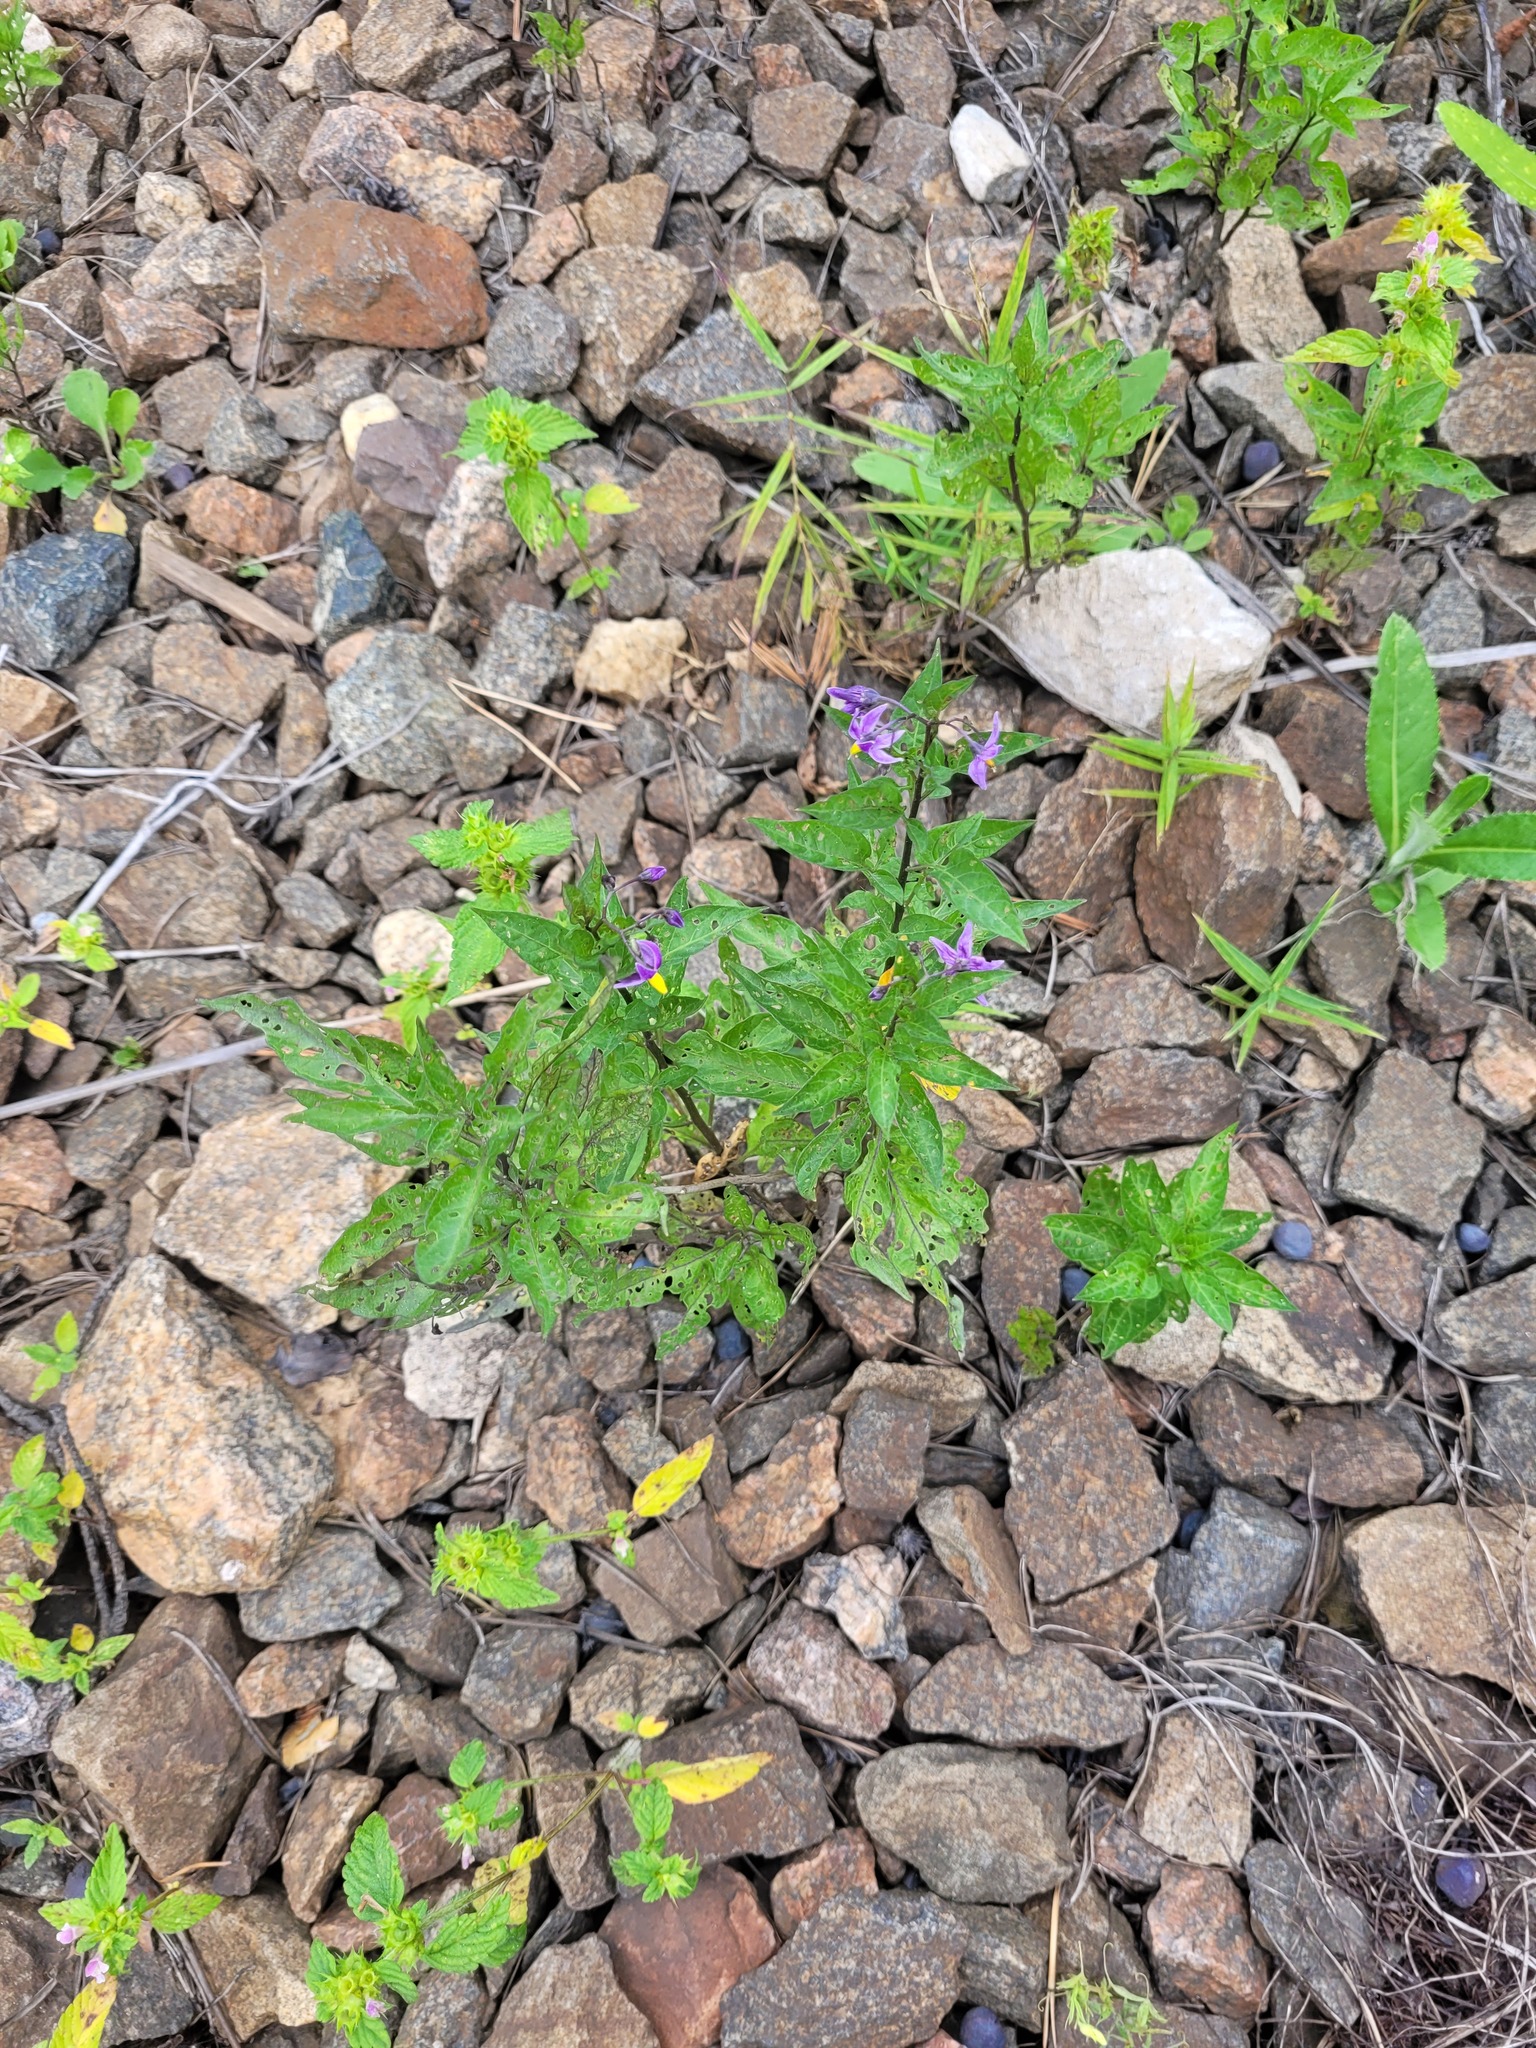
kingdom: Plantae
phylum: Tracheophyta
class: Magnoliopsida
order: Solanales
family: Solanaceae
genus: Solanum
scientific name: Solanum dulcamara
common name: Climbing nightshade
